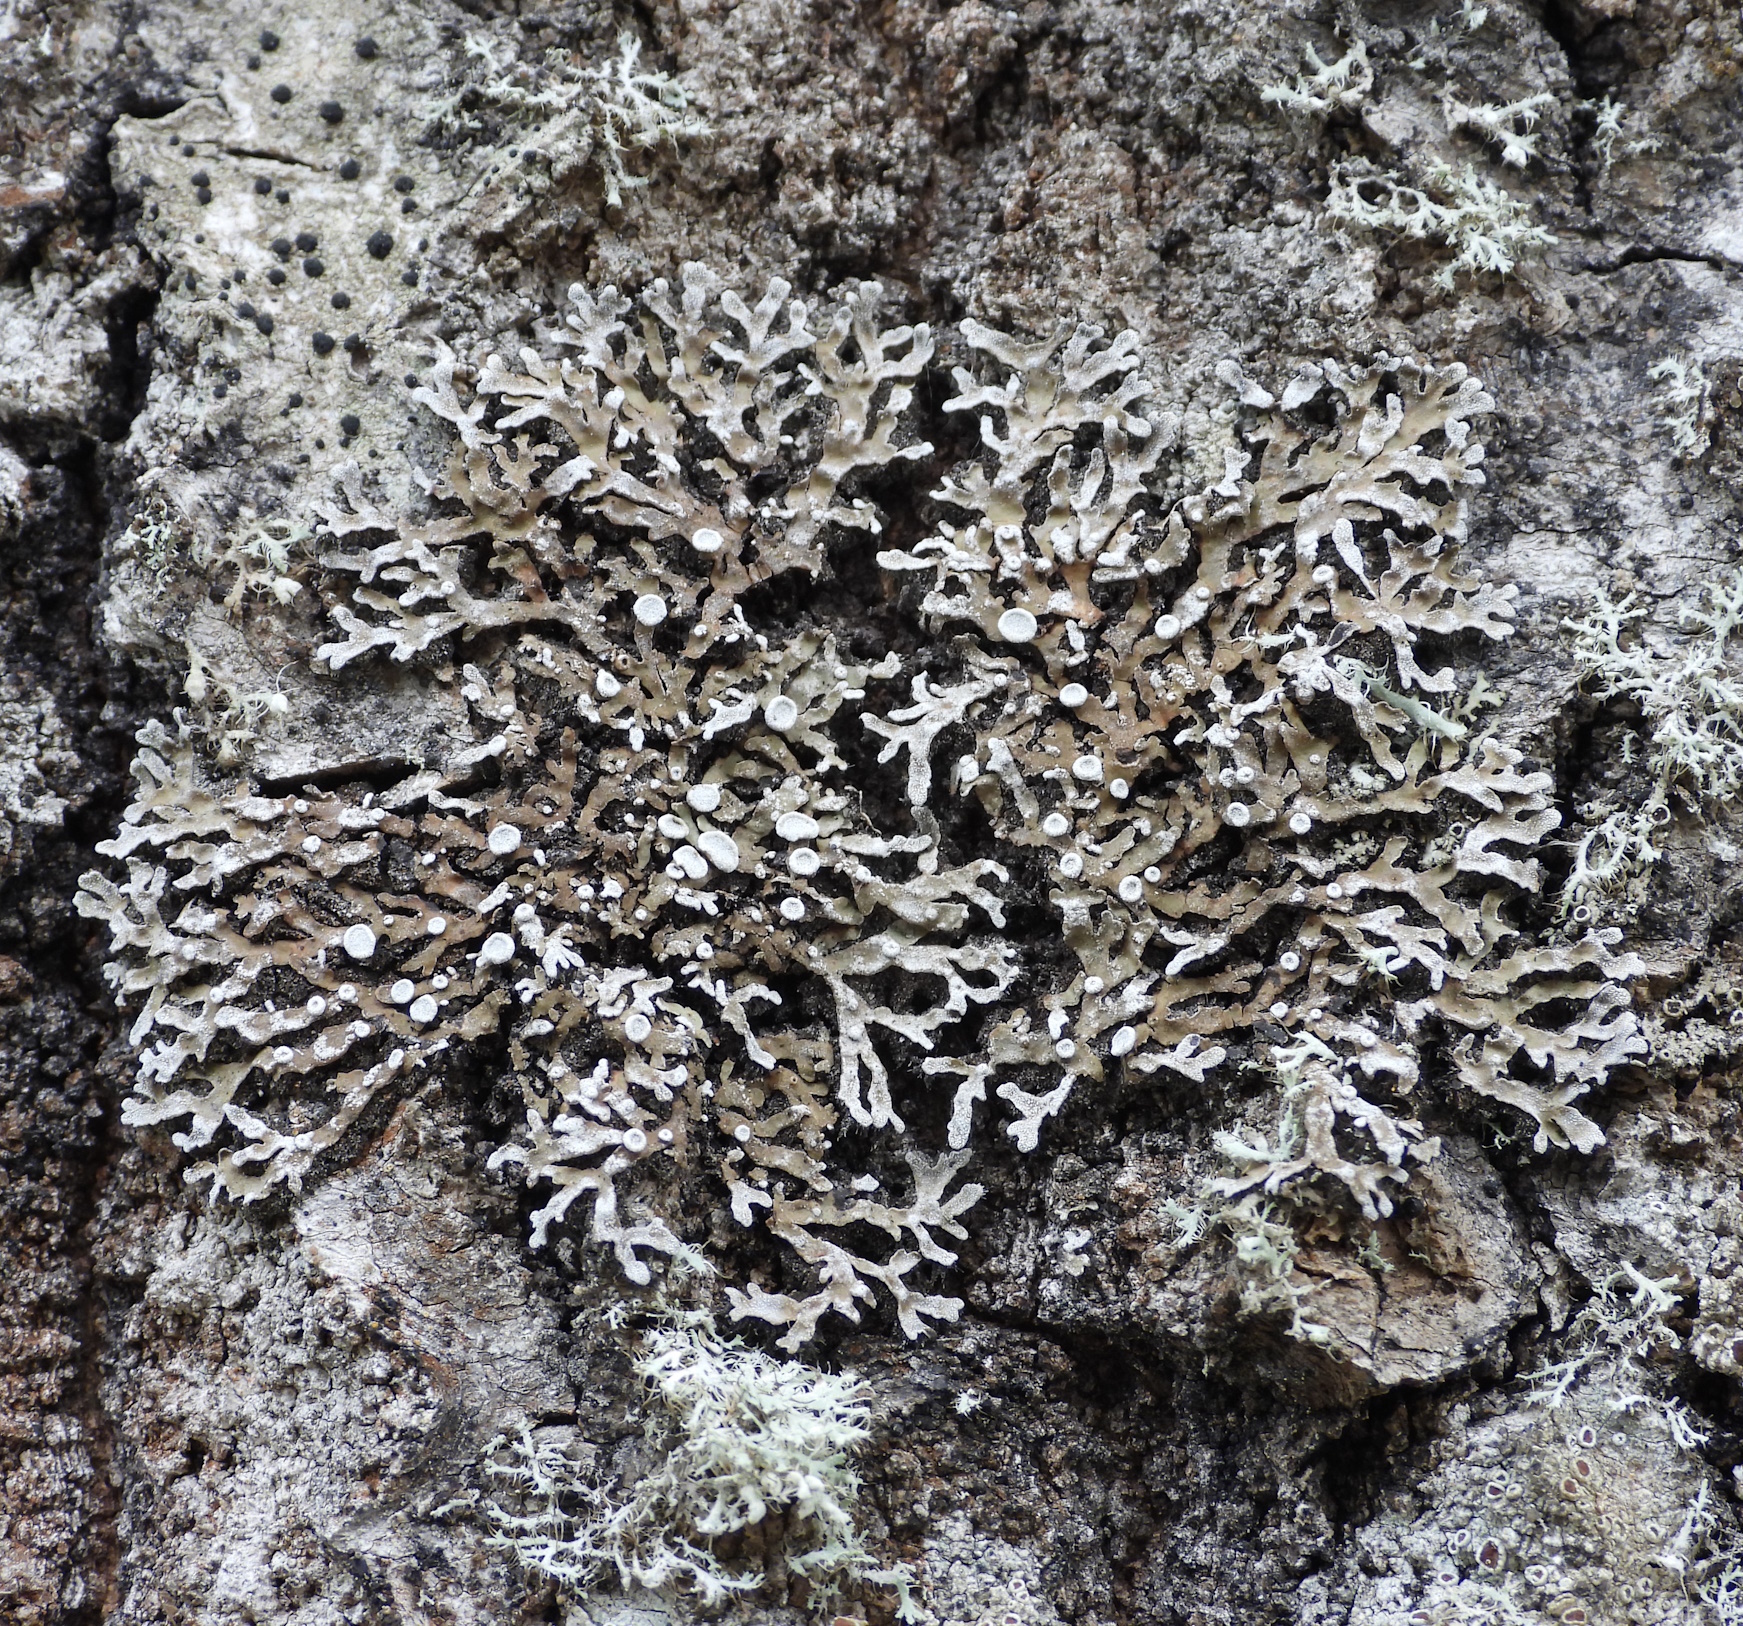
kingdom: Fungi
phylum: Ascomycota
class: Lecanoromycetes
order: Caliciales
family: Physciaceae
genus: Physconia
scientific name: Physconia distorta
